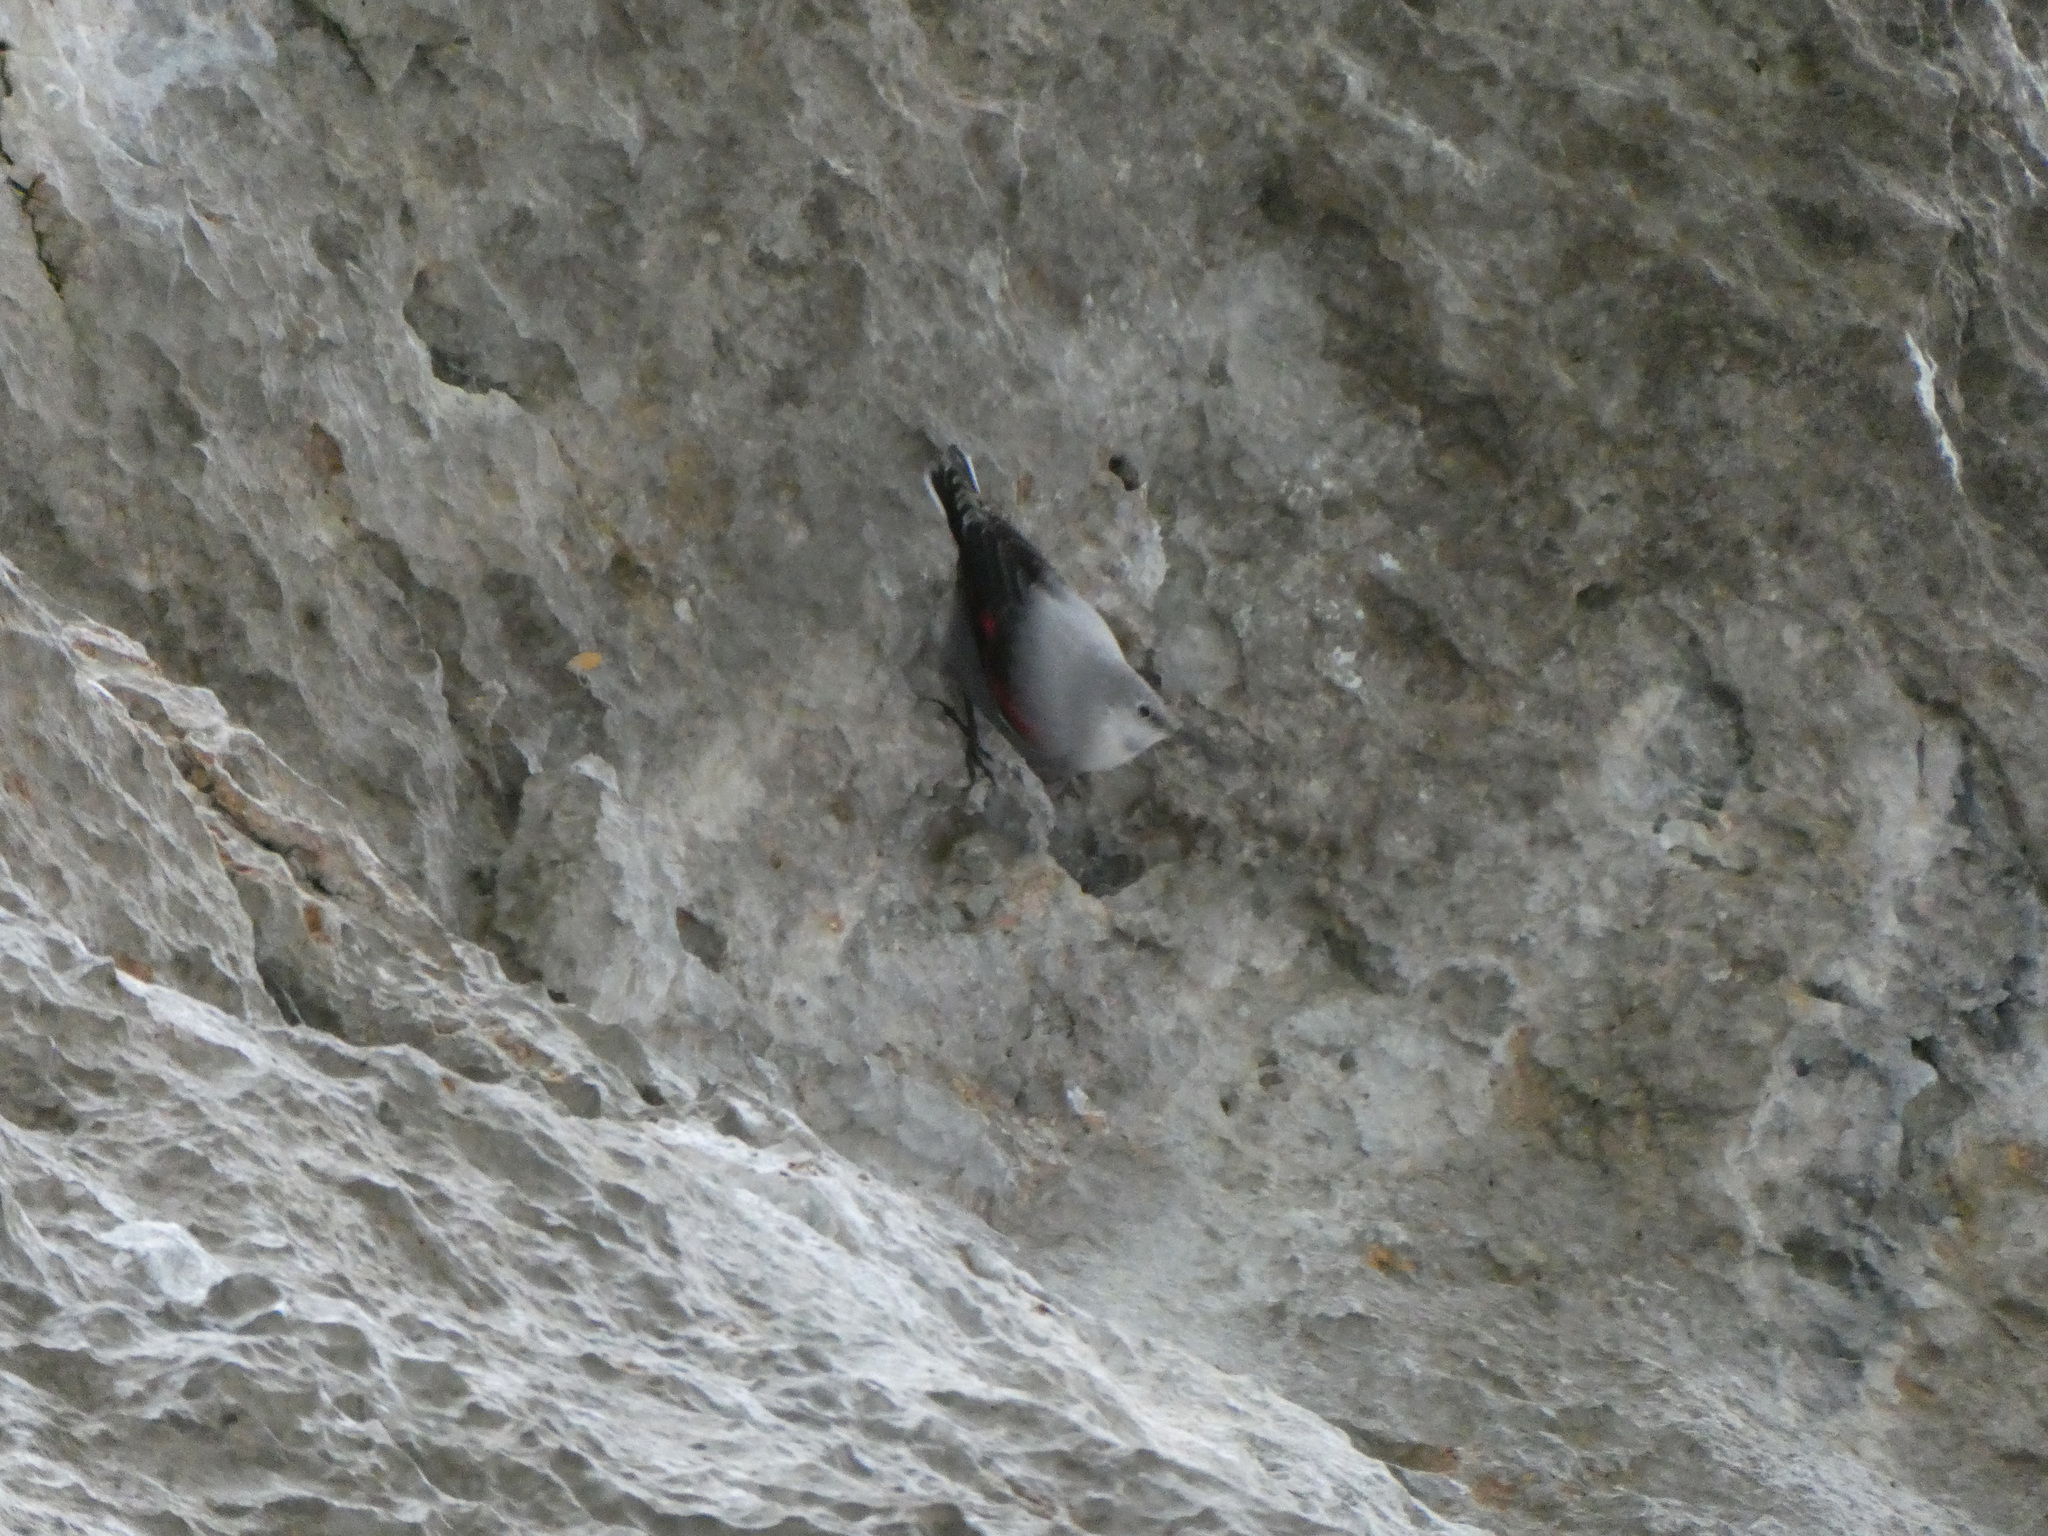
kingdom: Animalia
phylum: Chordata
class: Aves
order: Passeriformes
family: Tichodromidae
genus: Tichodroma
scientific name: Tichodroma muraria
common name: Wallcreeper
